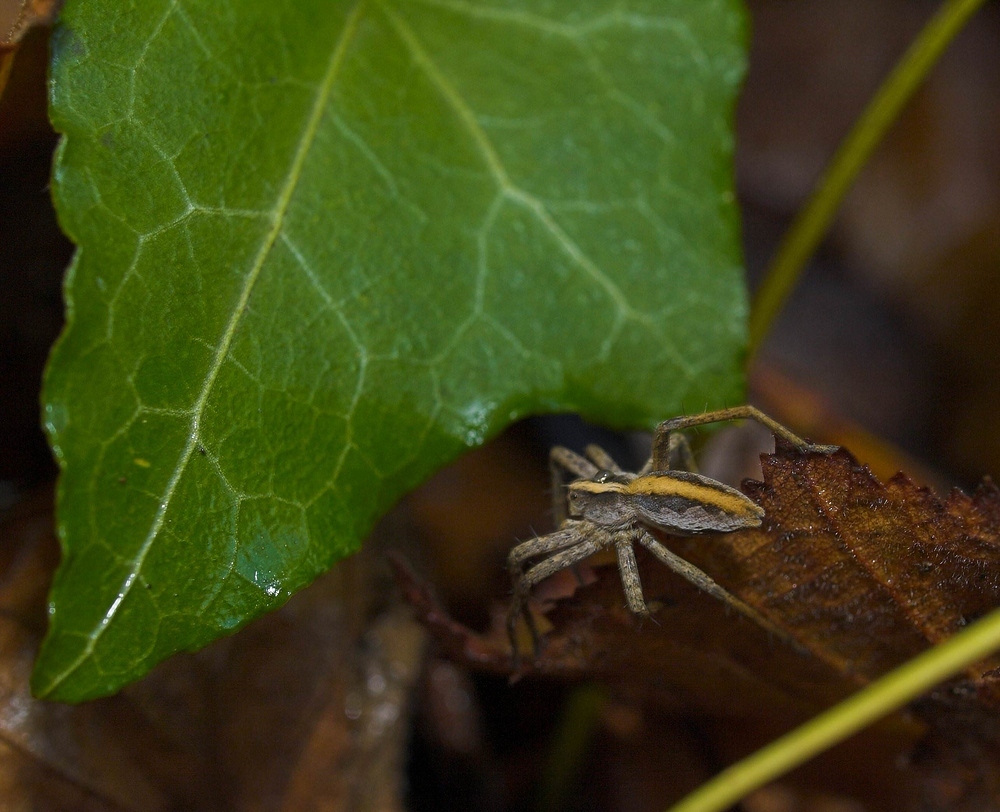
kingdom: Animalia
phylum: Arthropoda
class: Arachnida
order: Araneae
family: Pisauridae
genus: Pisaura
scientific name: Pisaura mirabilis
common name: Tent spider
